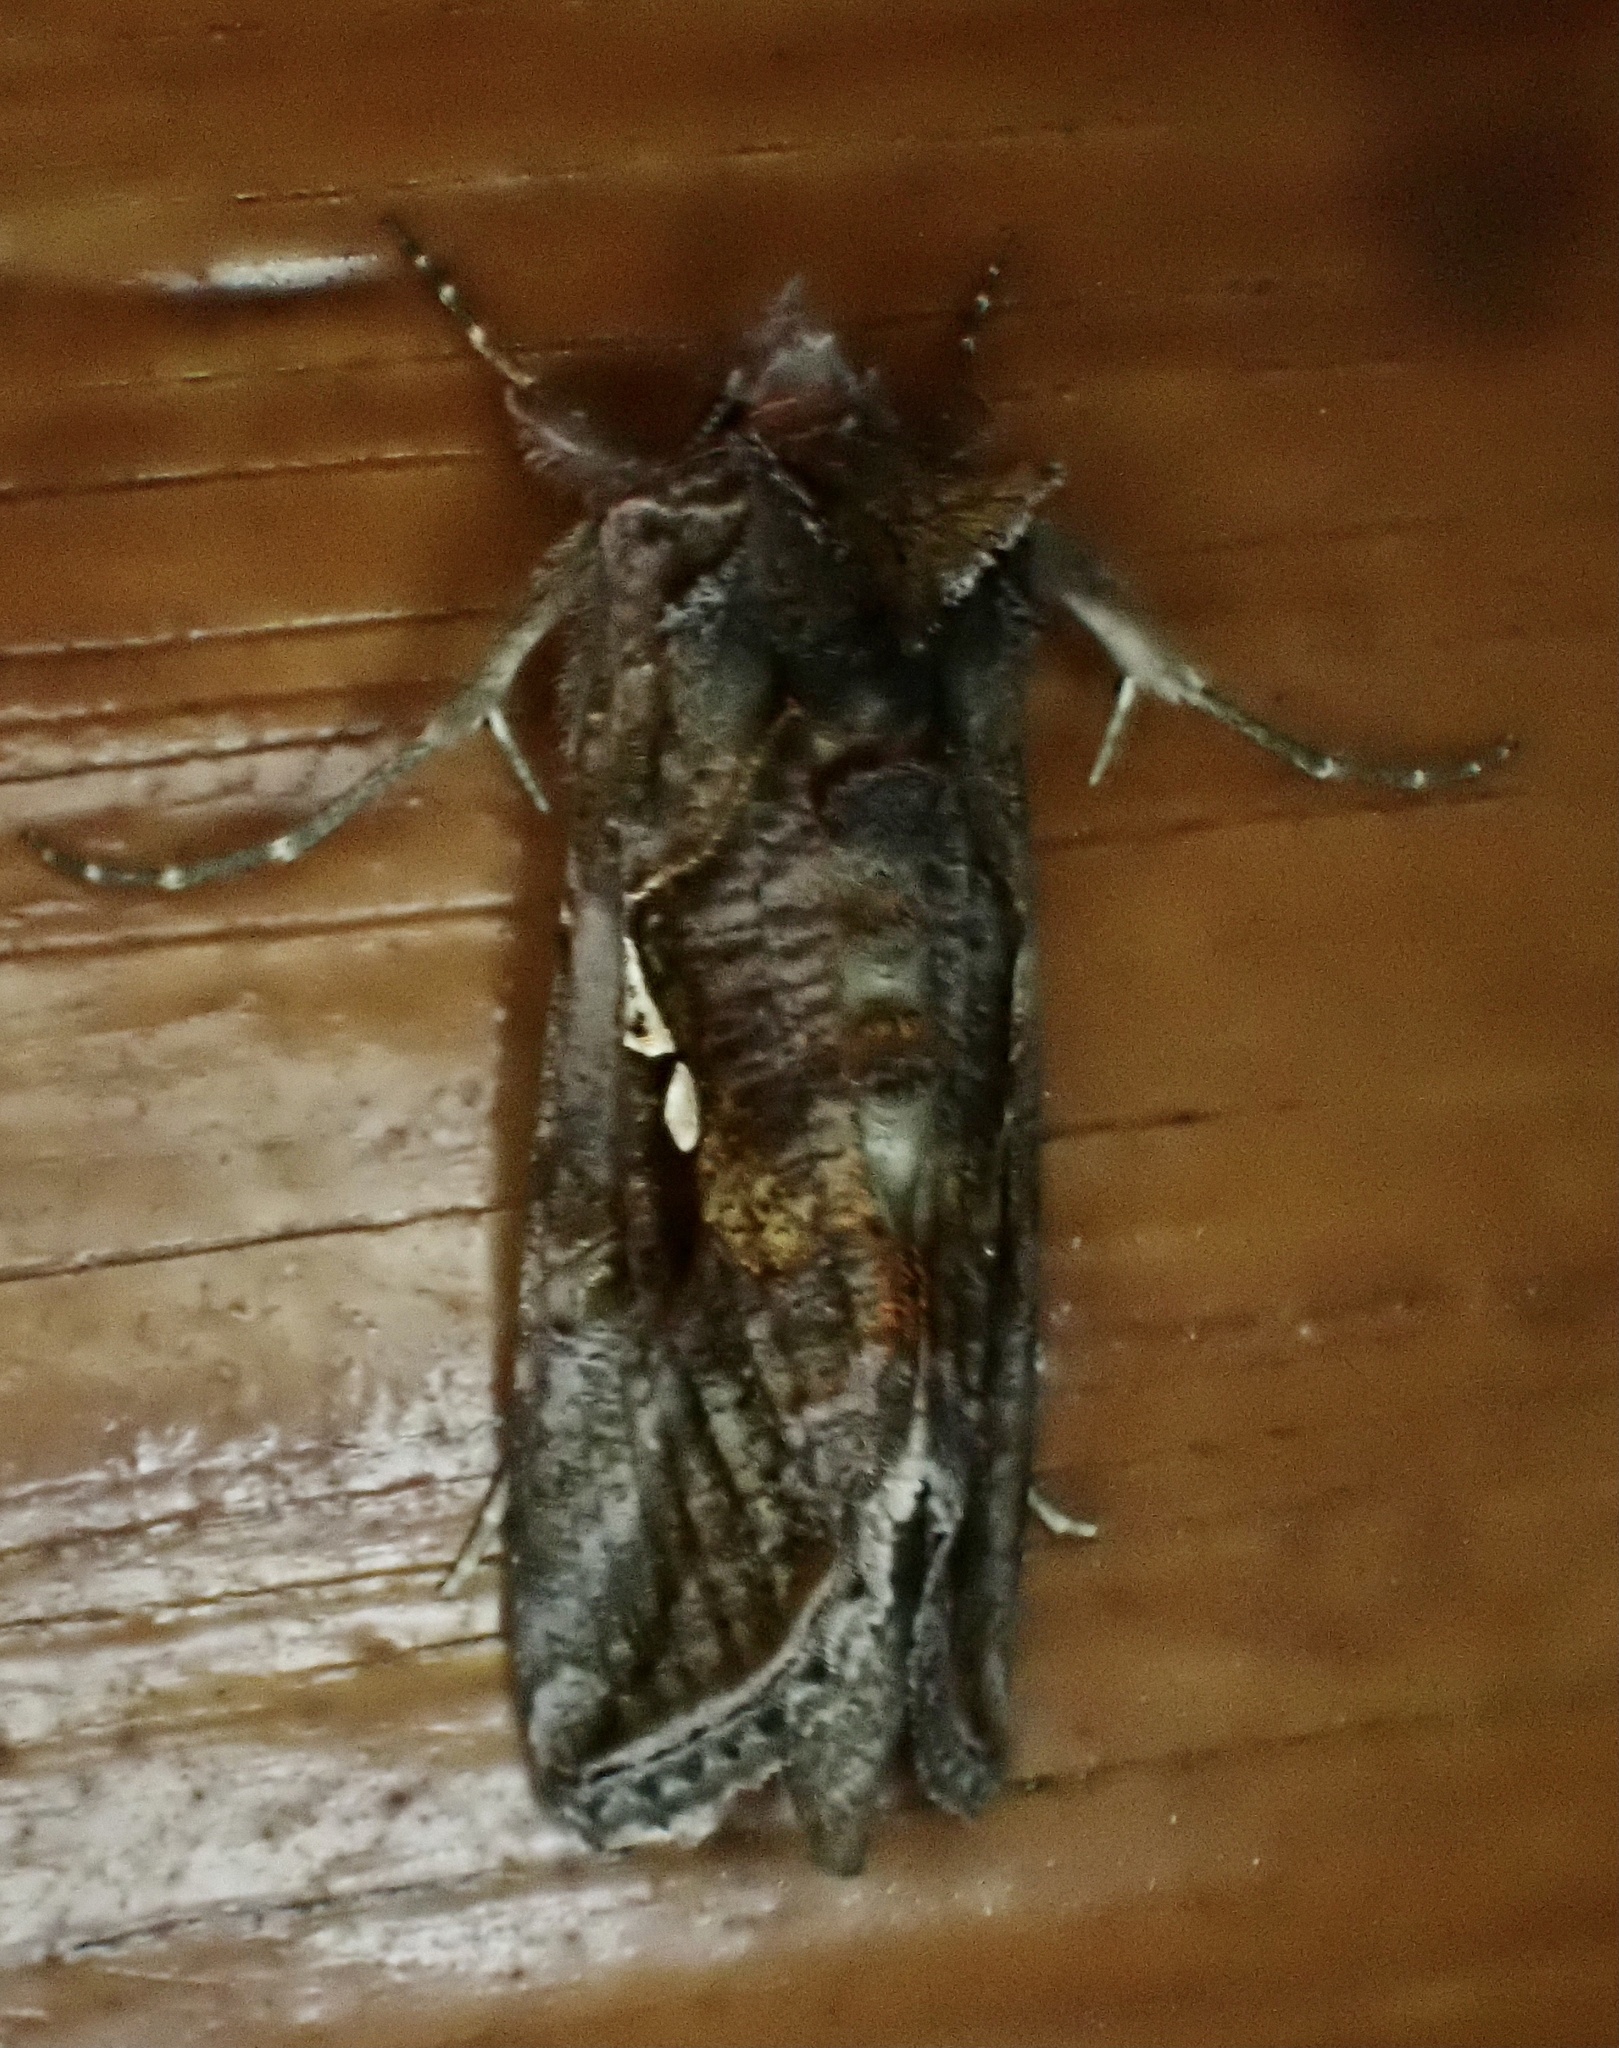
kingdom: Animalia
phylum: Arthropoda
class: Insecta
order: Lepidoptera
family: Noctuidae
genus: Autographa
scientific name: Autographa precationis
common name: Common looper moth
